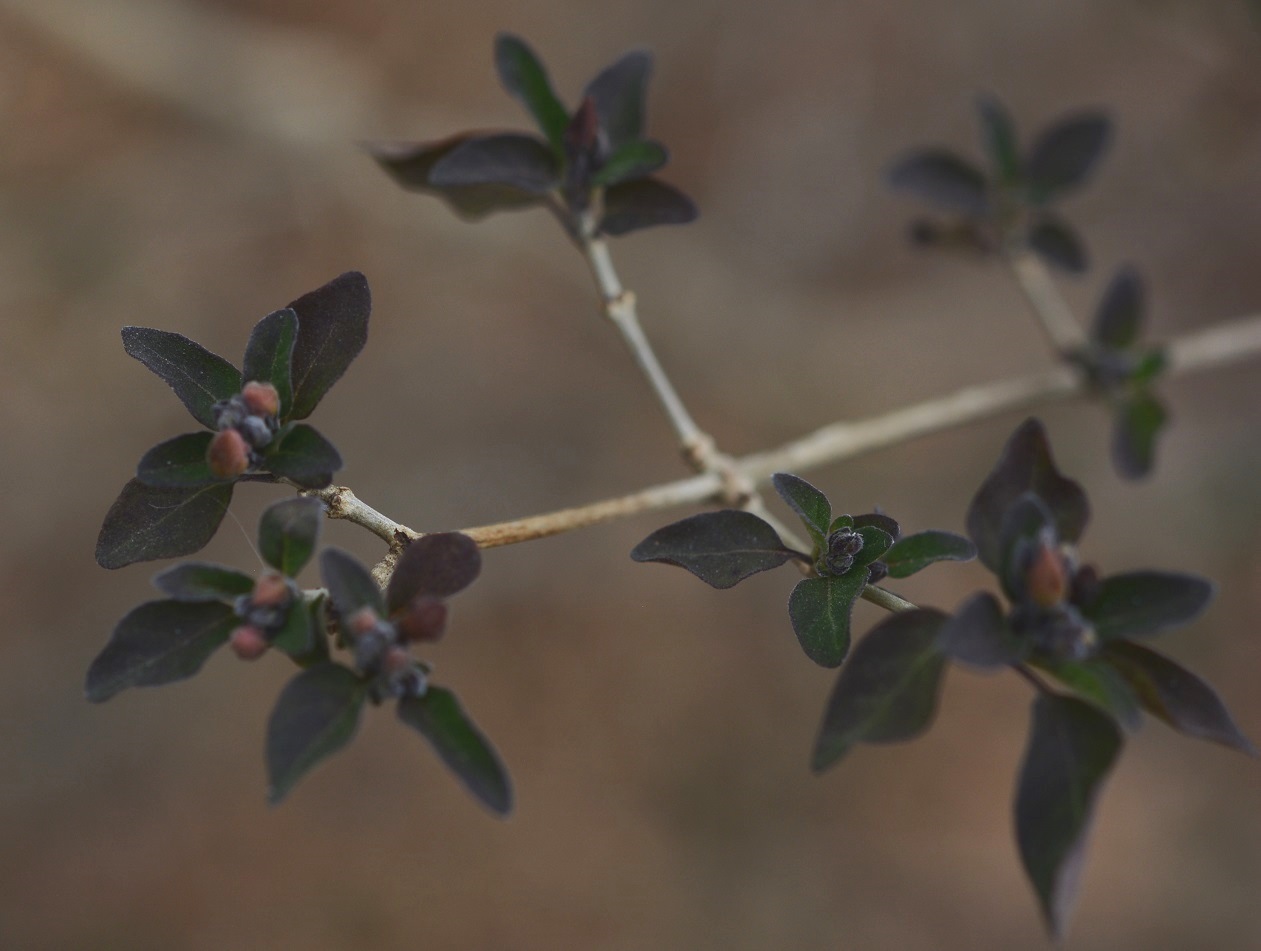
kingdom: Plantae
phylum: Tracheophyta
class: Magnoliopsida
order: Lamiales
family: Acanthaceae
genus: Holographis
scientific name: Holographis parayana
